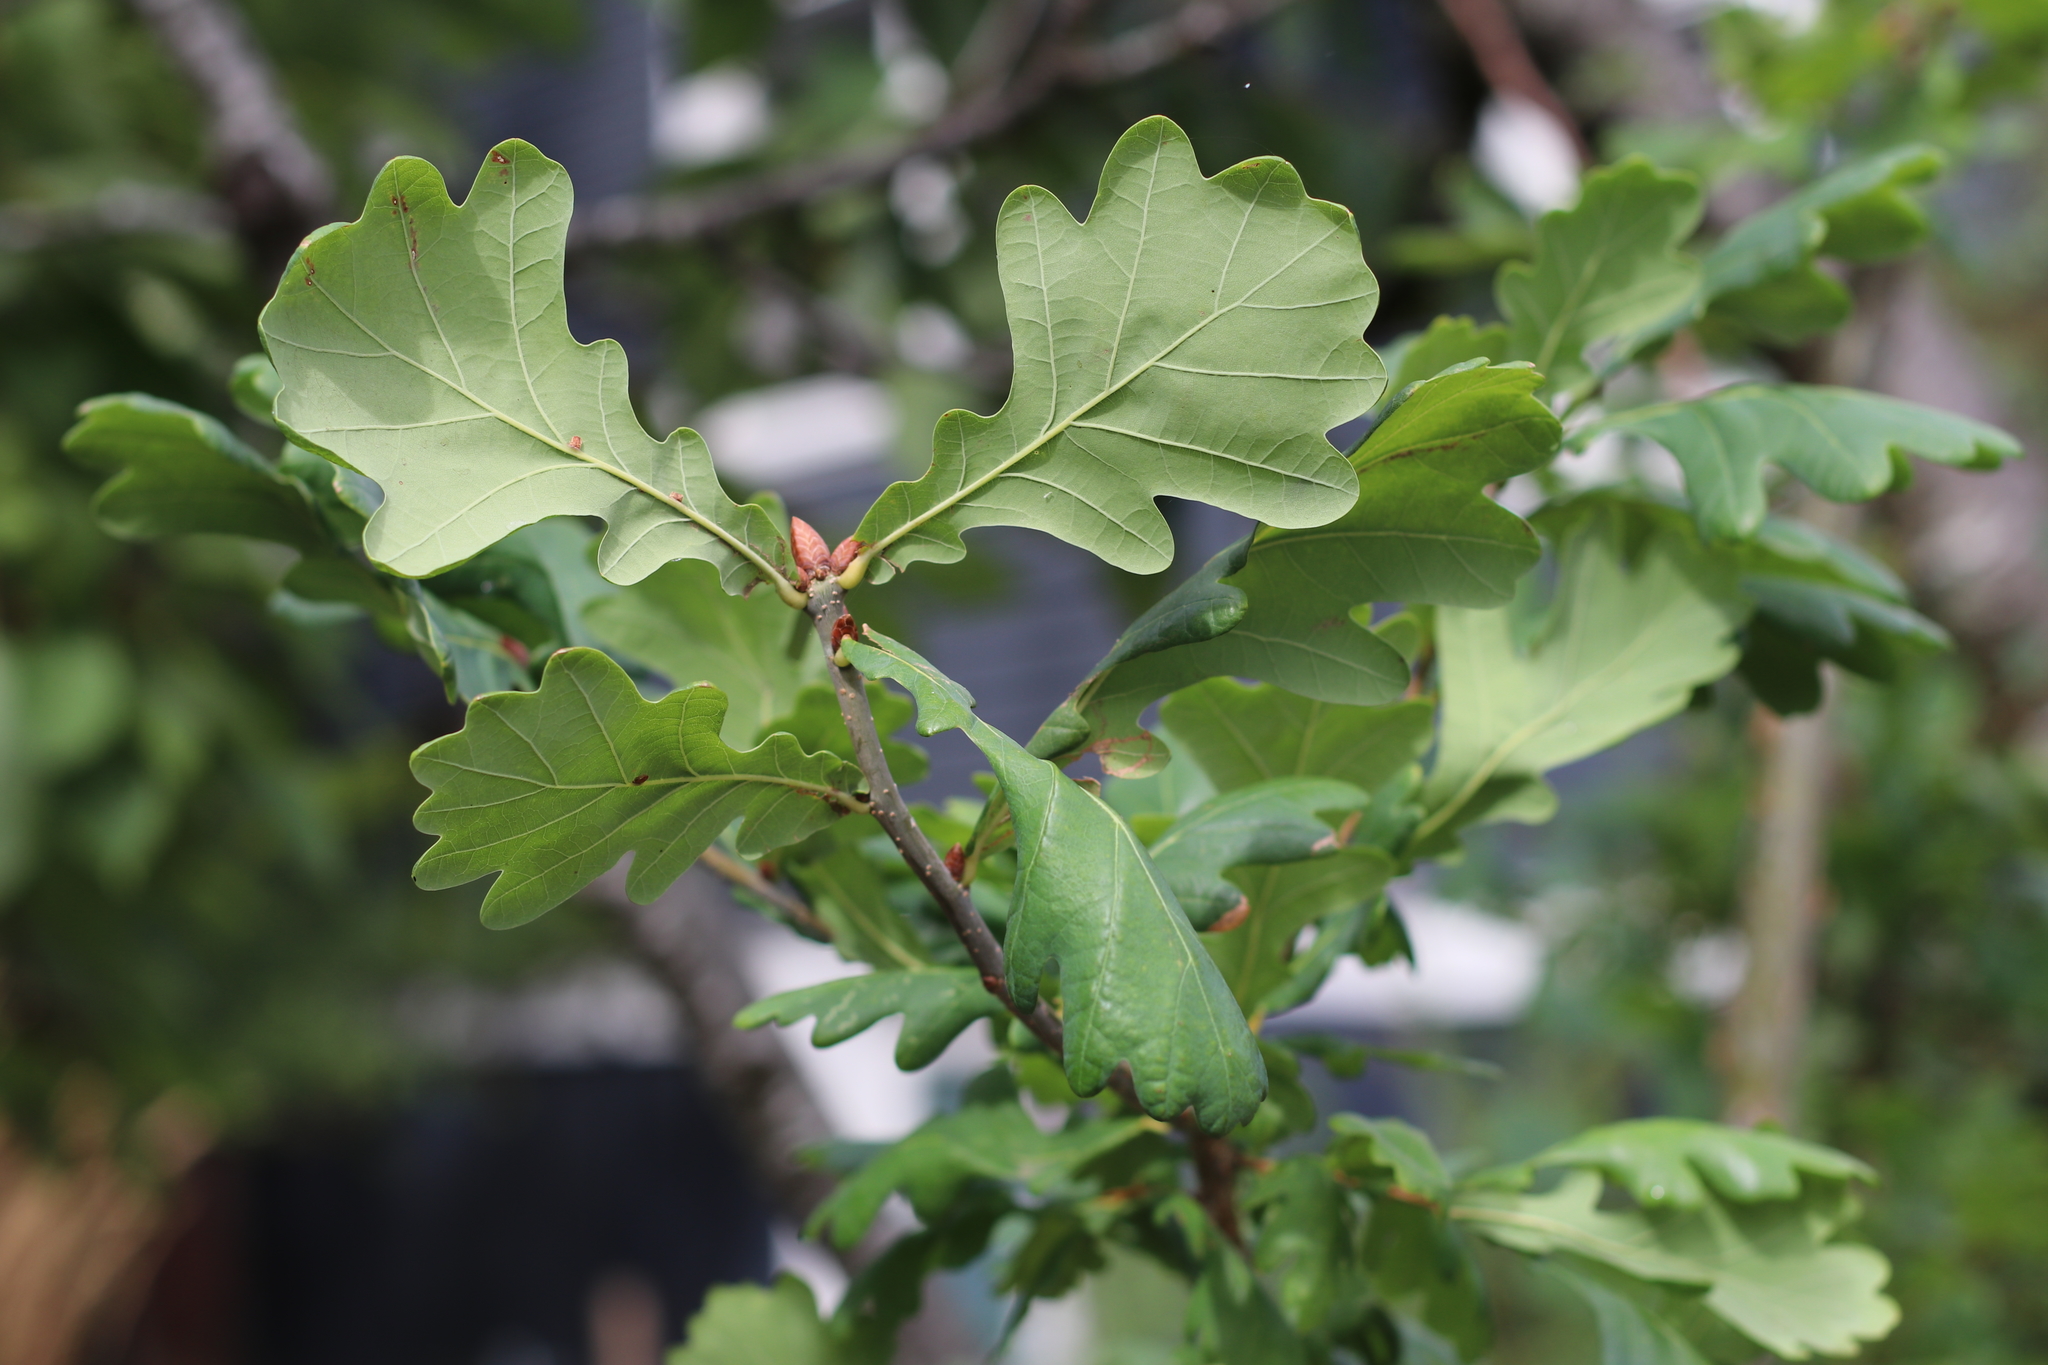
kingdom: Plantae
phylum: Tracheophyta
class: Magnoliopsida
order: Fagales
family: Fagaceae
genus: Quercus
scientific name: Quercus robur
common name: Pedunculate oak
